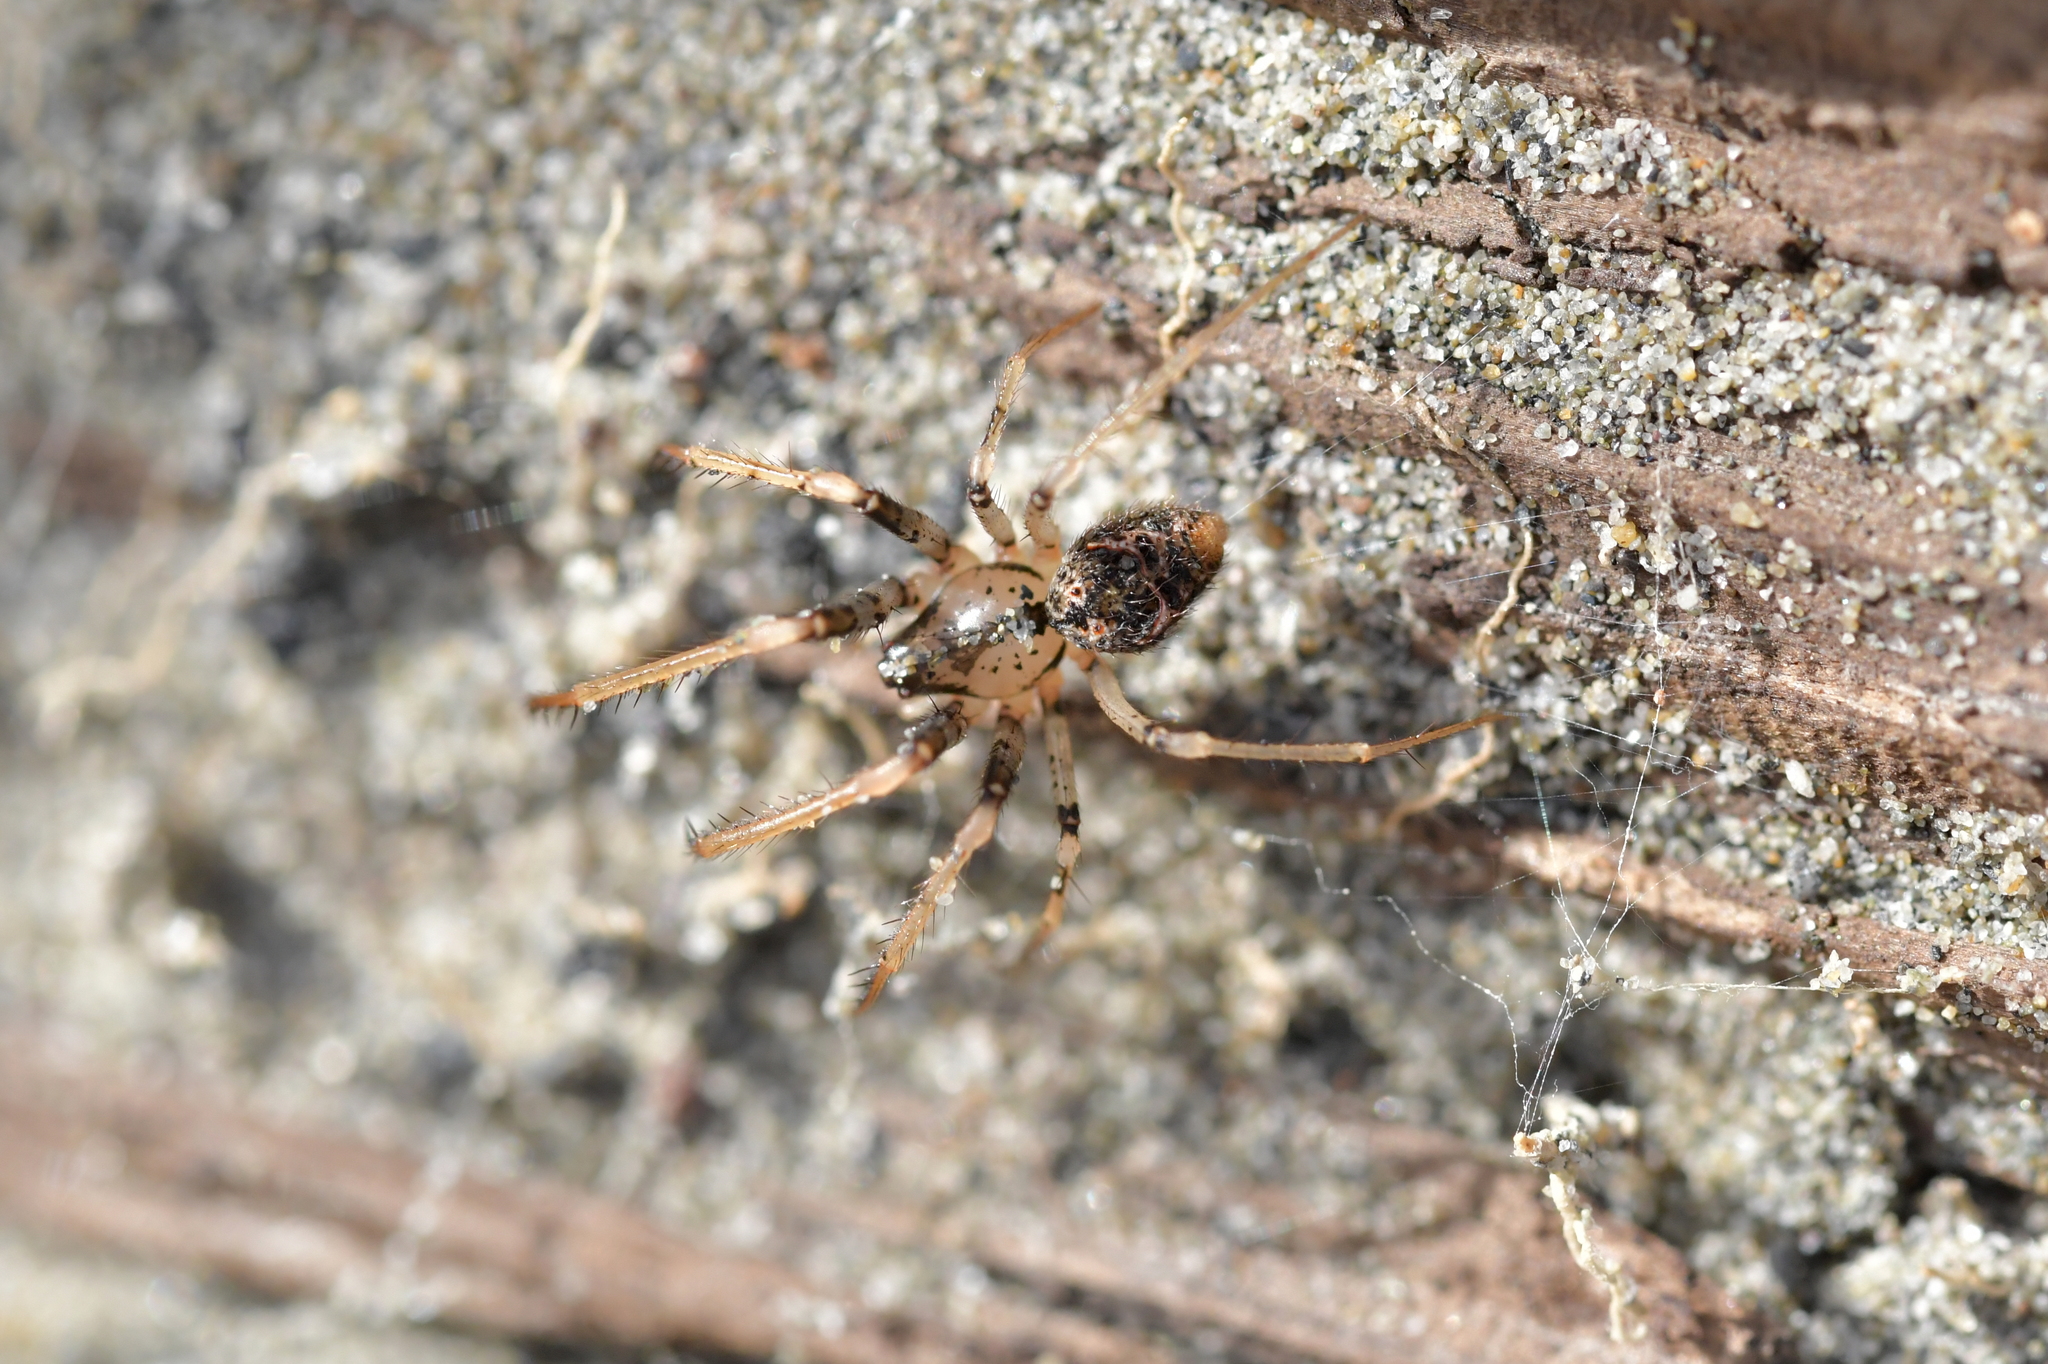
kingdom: Animalia
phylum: Arthropoda
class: Arachnida
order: Araneae
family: Mimetidae
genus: Australomimetus
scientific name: Australomimetus hartleyensis
